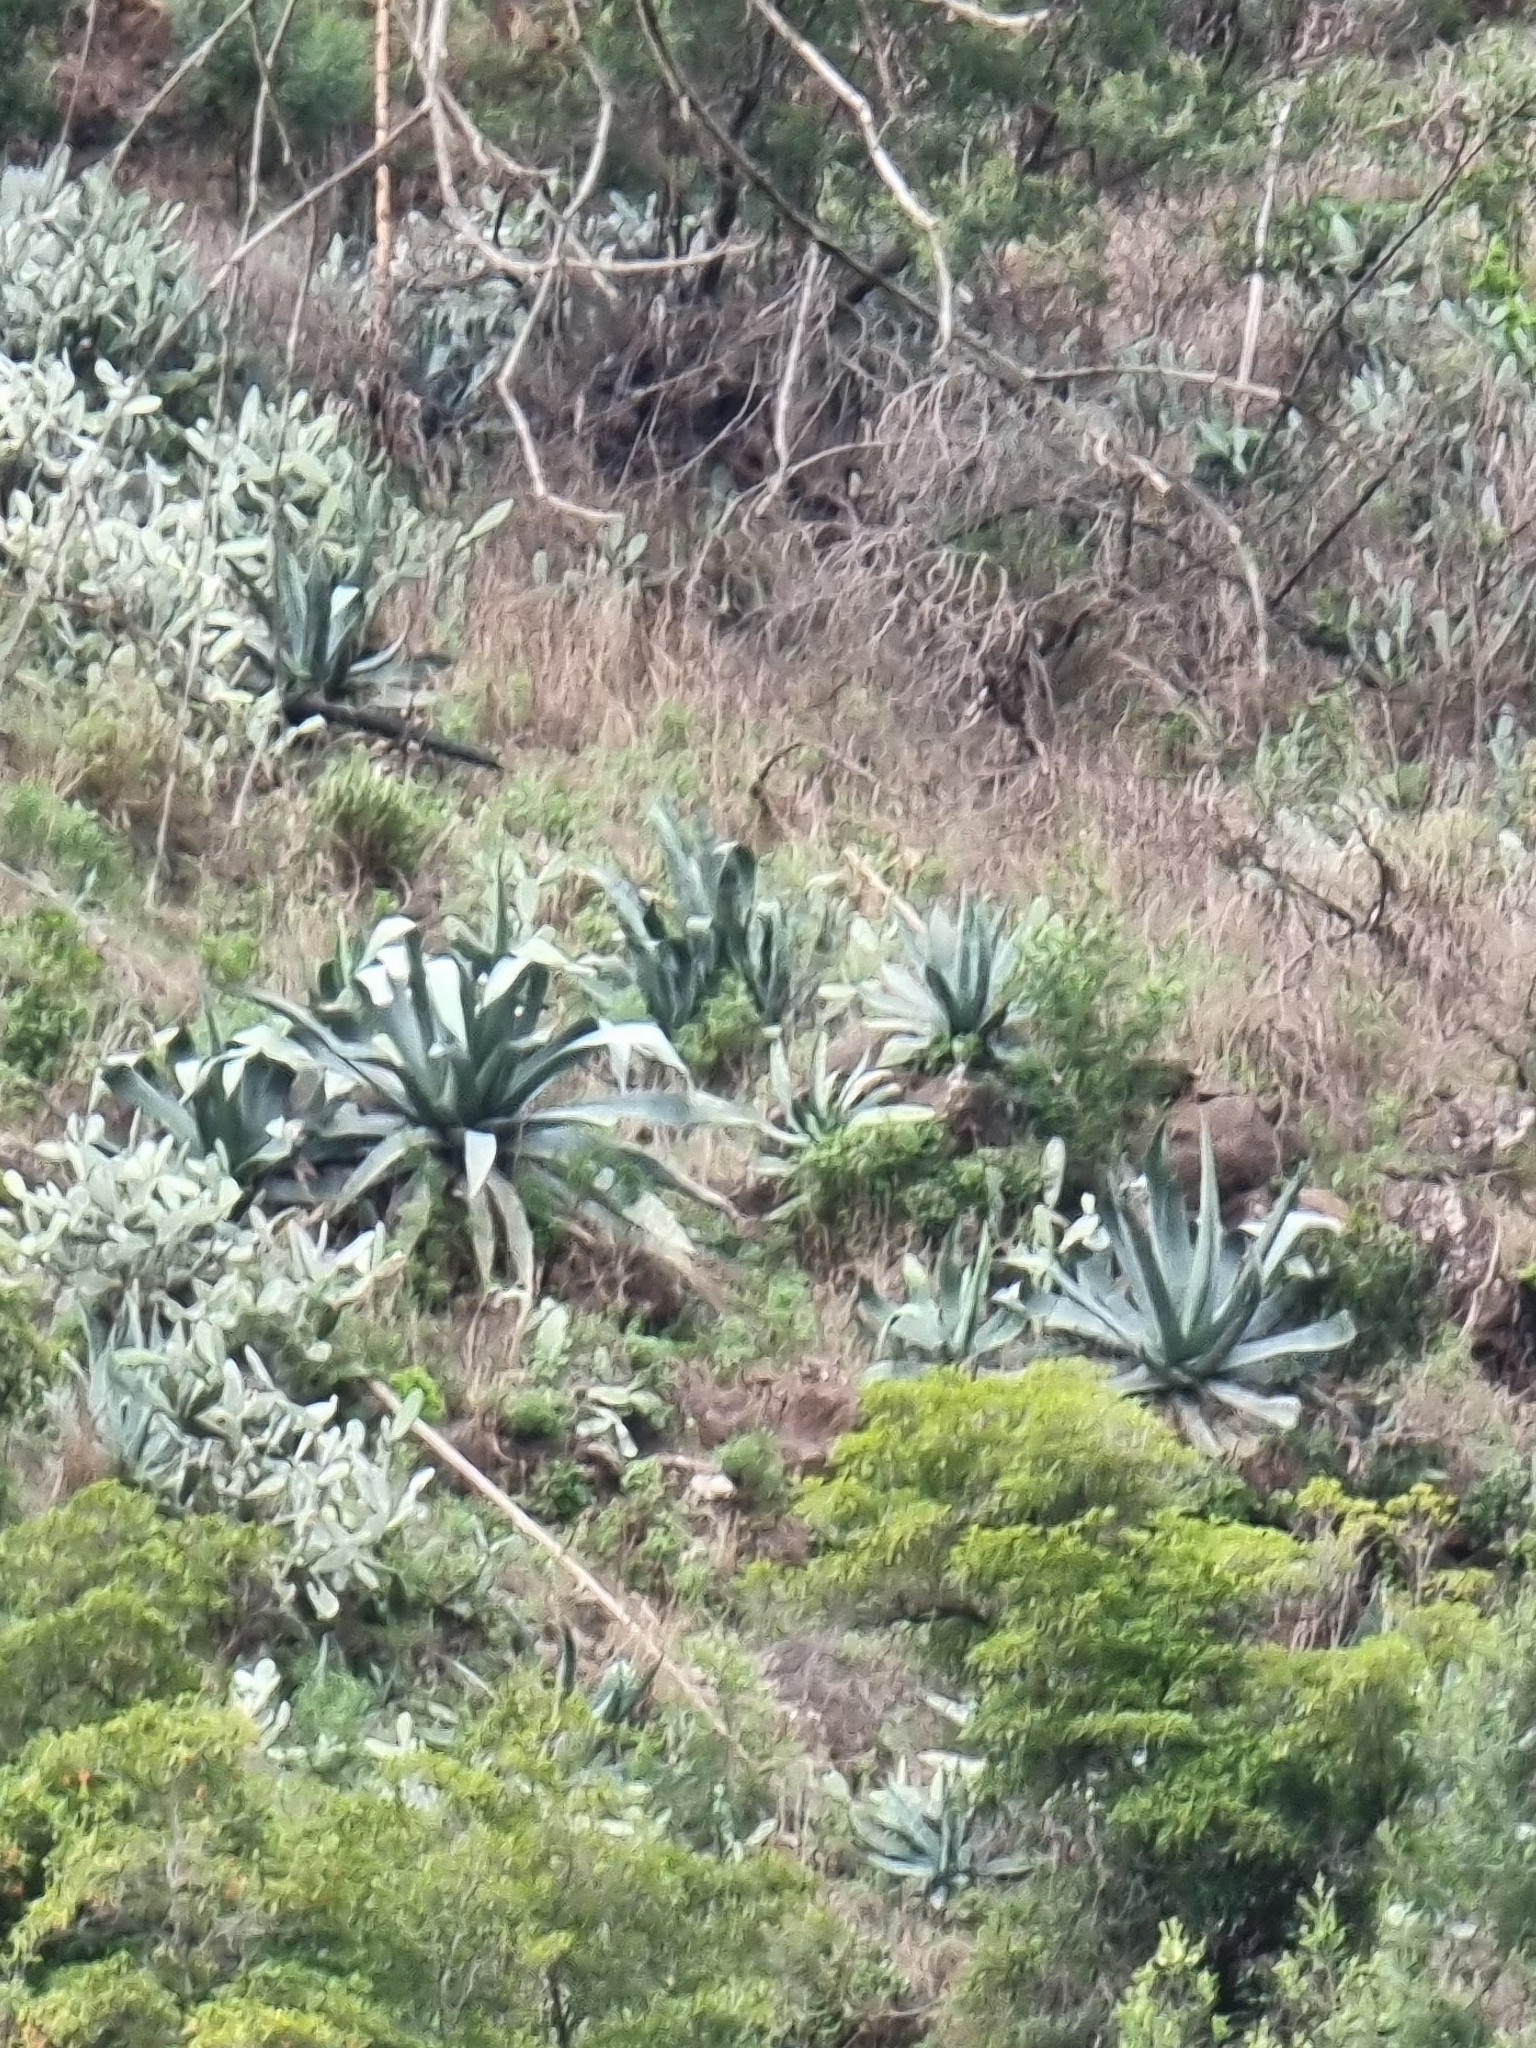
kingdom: Plantae
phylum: Tracheophyta
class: Liliopsida
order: Asparagales
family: Asparagaceae
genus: Agave
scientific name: Agave americana
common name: Centuryplant
